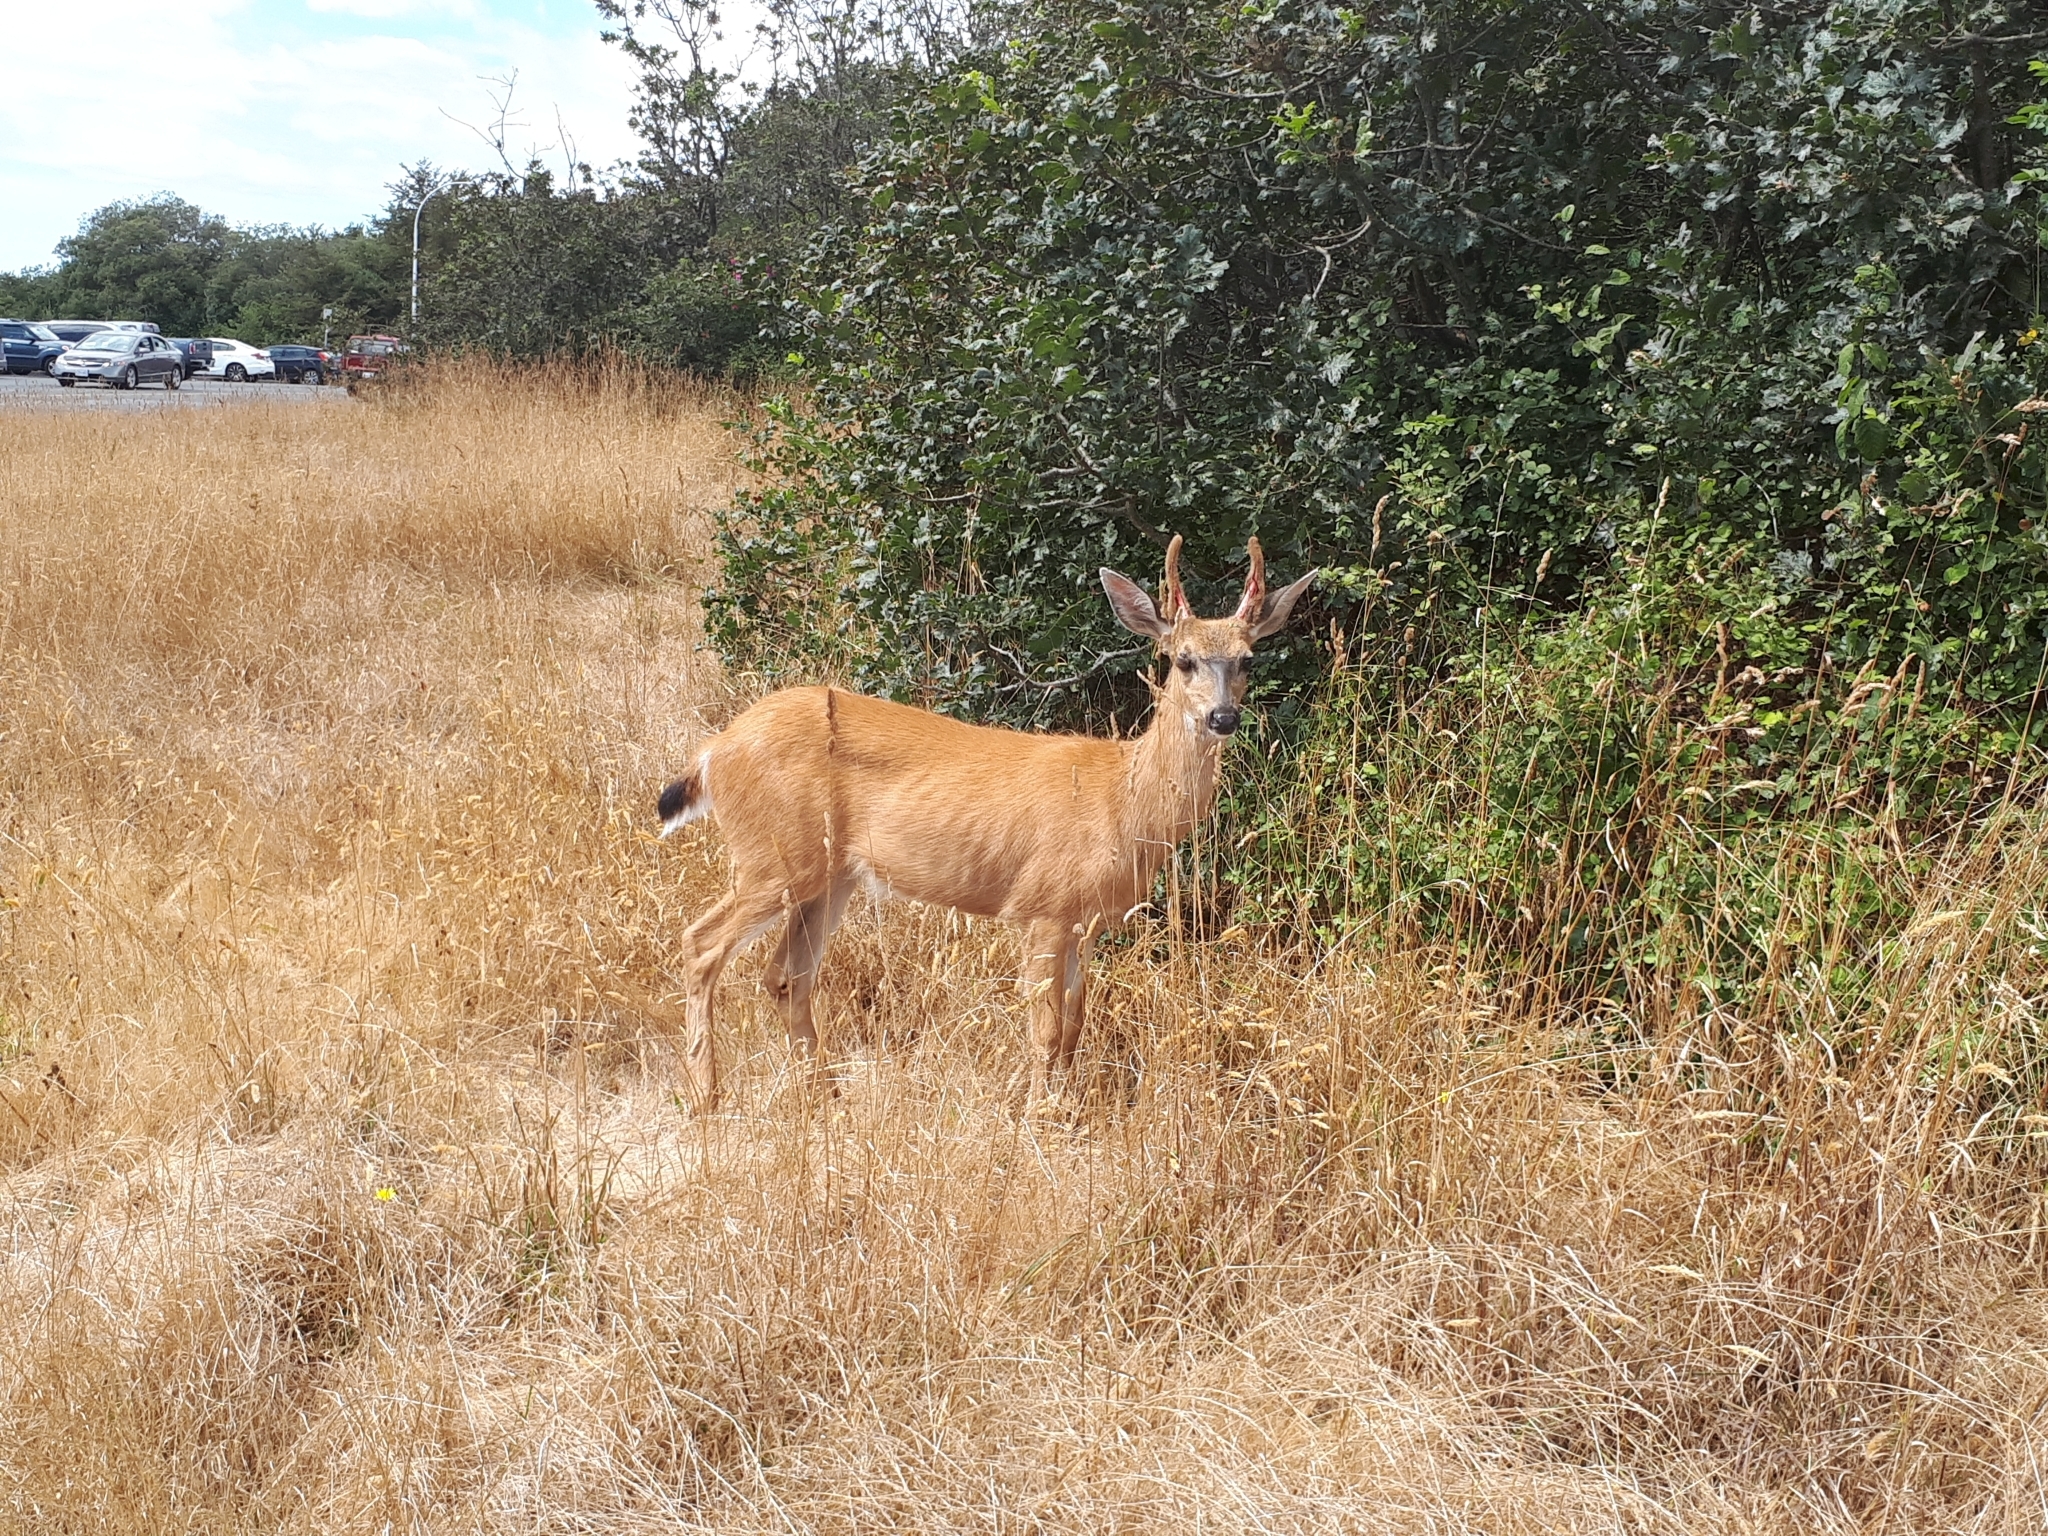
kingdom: Animalia
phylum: Chordata
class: Mammalia
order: Artiodactyla
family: Cervidae
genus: Odocoileus
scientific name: Odocoileus hemionus
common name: Mule deer
